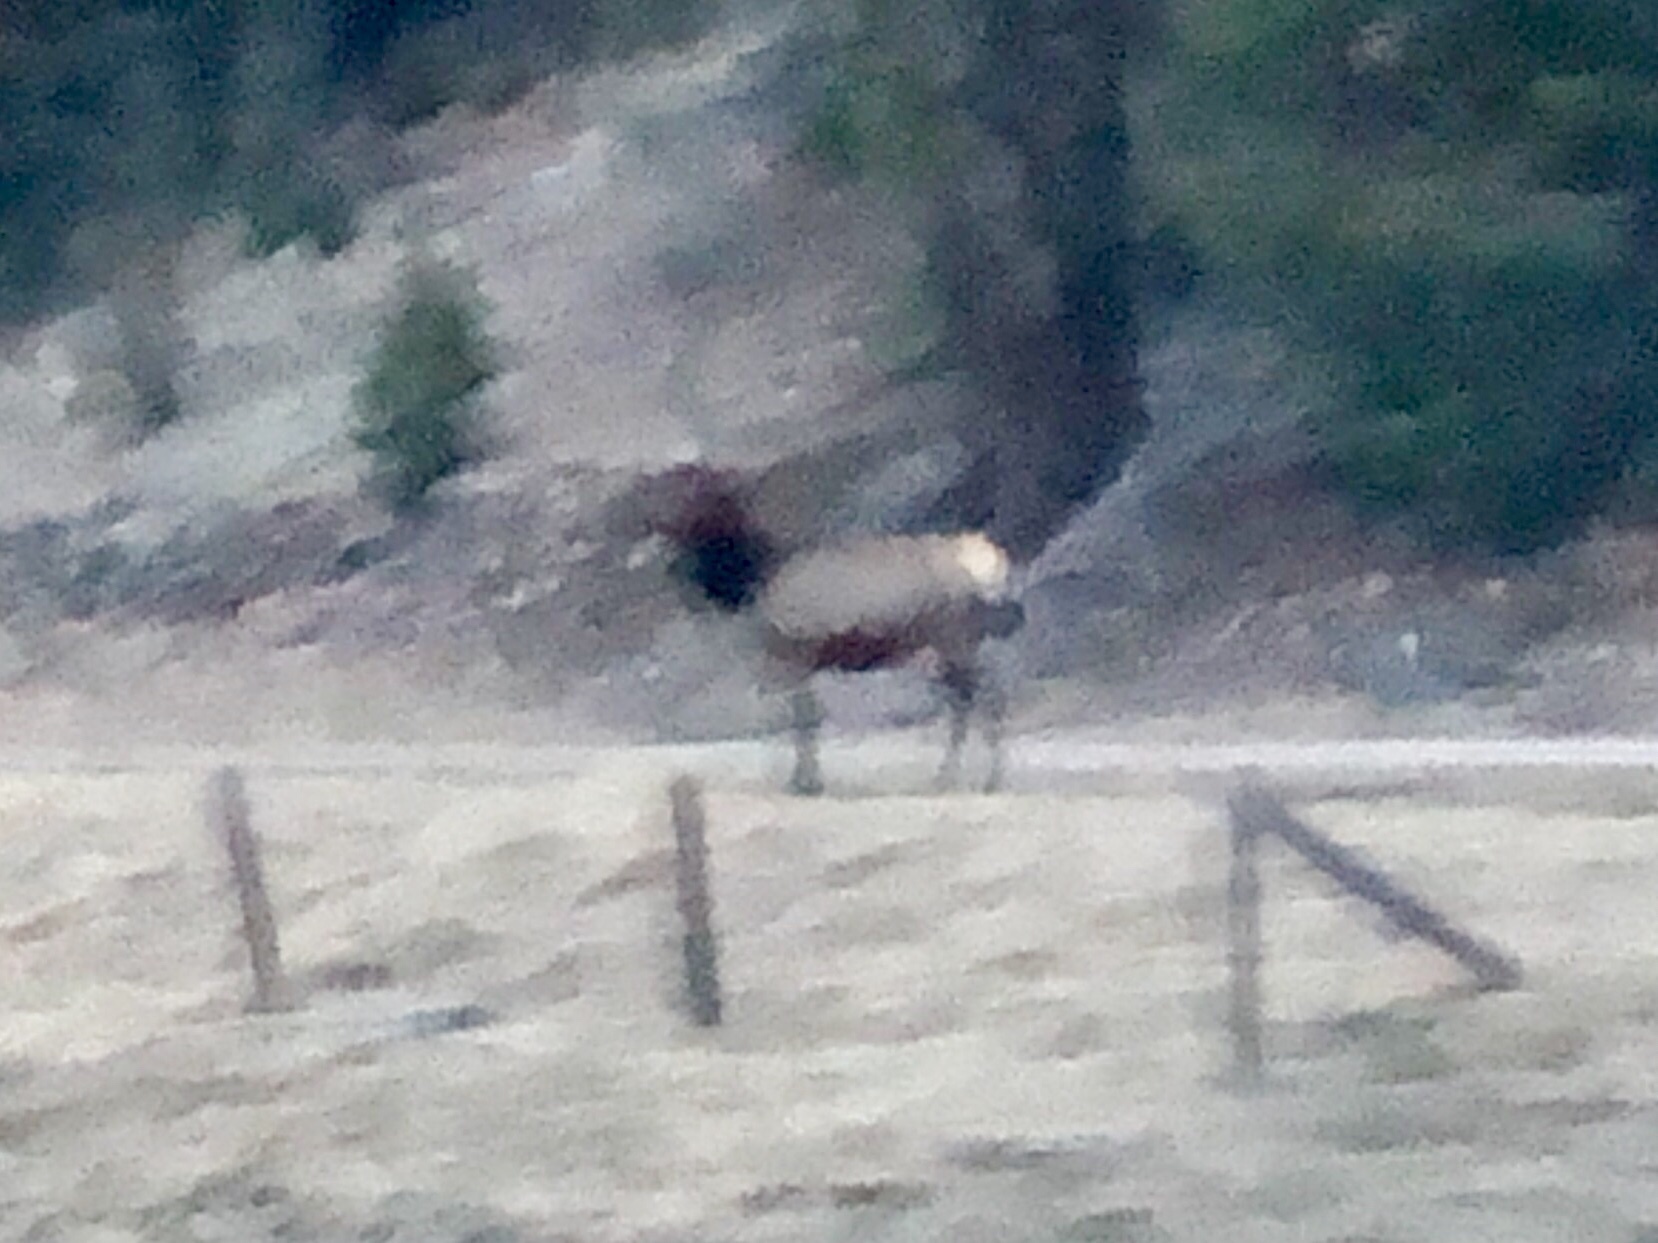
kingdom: Animalia
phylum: Chordata
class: Mammalia
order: Artiodactyla
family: Cervidae
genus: Cervus
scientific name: Cervus elaphus
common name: Red deer
